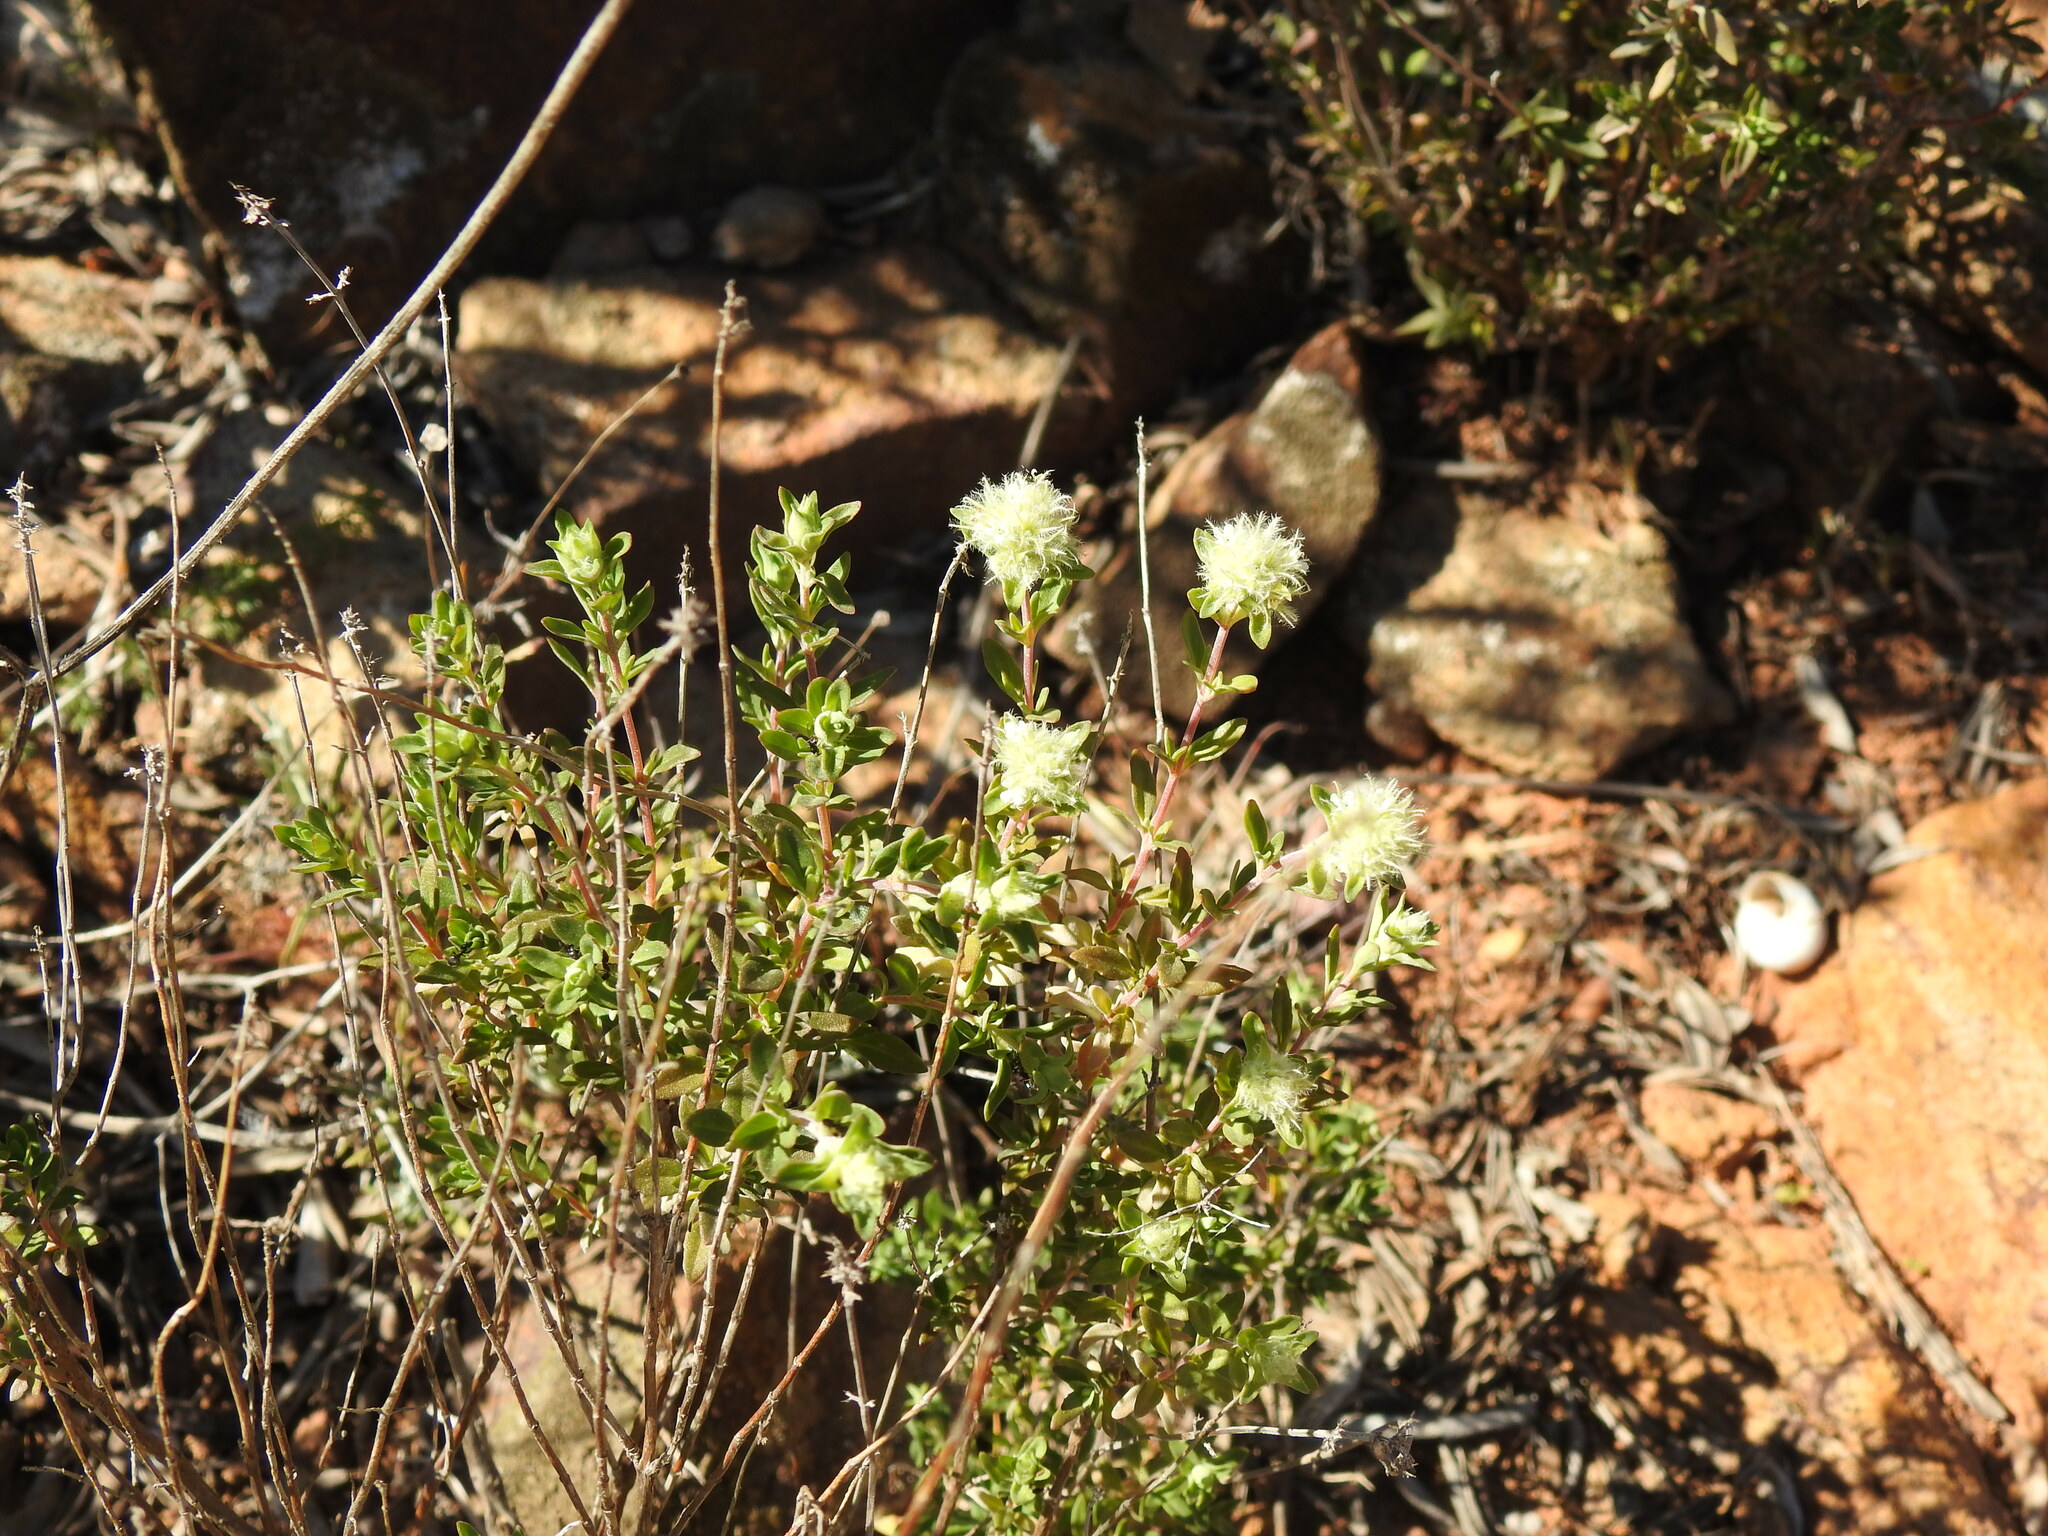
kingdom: Plantae
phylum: Tracheophyta
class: Magnoliopsida
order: Lamiales
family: Lamiaceae
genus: Thymus
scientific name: Thymus mastichina
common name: Mastic thyme
